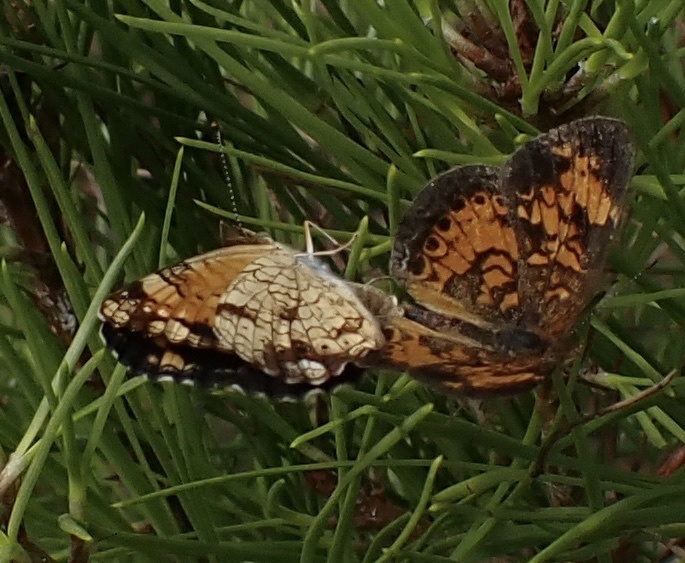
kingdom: Animalia
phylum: Arthropoda
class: Insecta
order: Lepidoptera
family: Nymphalidae
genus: Phyciodes
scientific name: Phyciodes tharos
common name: Pearl crescent
